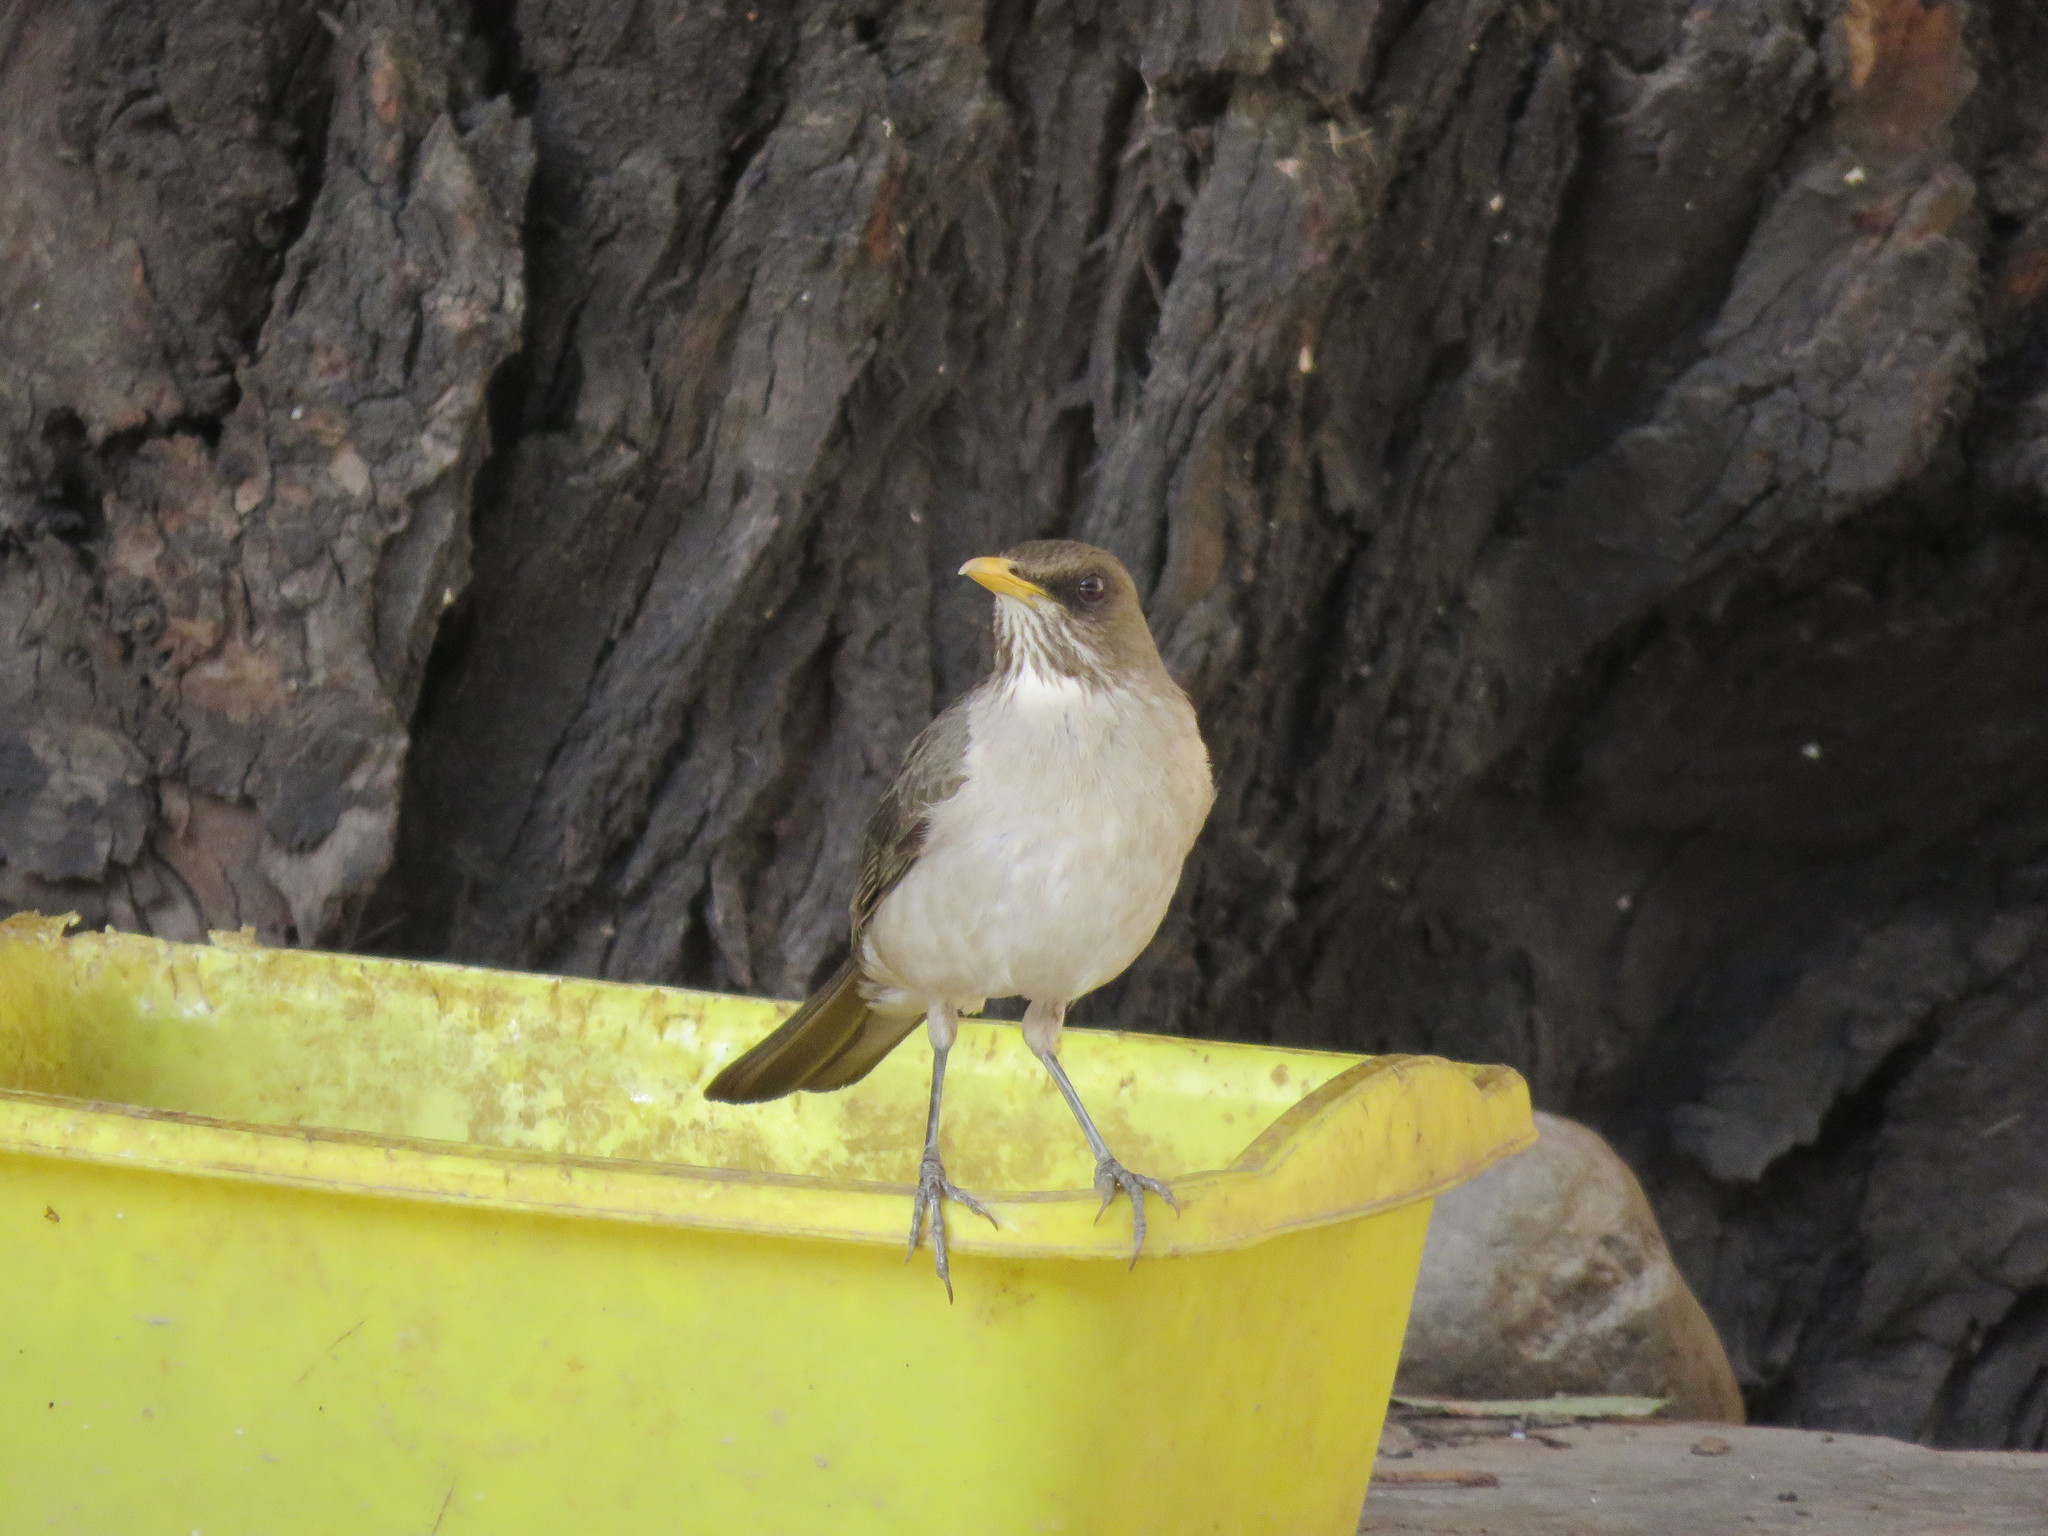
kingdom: Animalia
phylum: Chordata
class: Aves
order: Passeriformes
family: Turdidae
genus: Turdus
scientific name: Turdus amaurochalinus
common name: Creamy-bellied thrush
